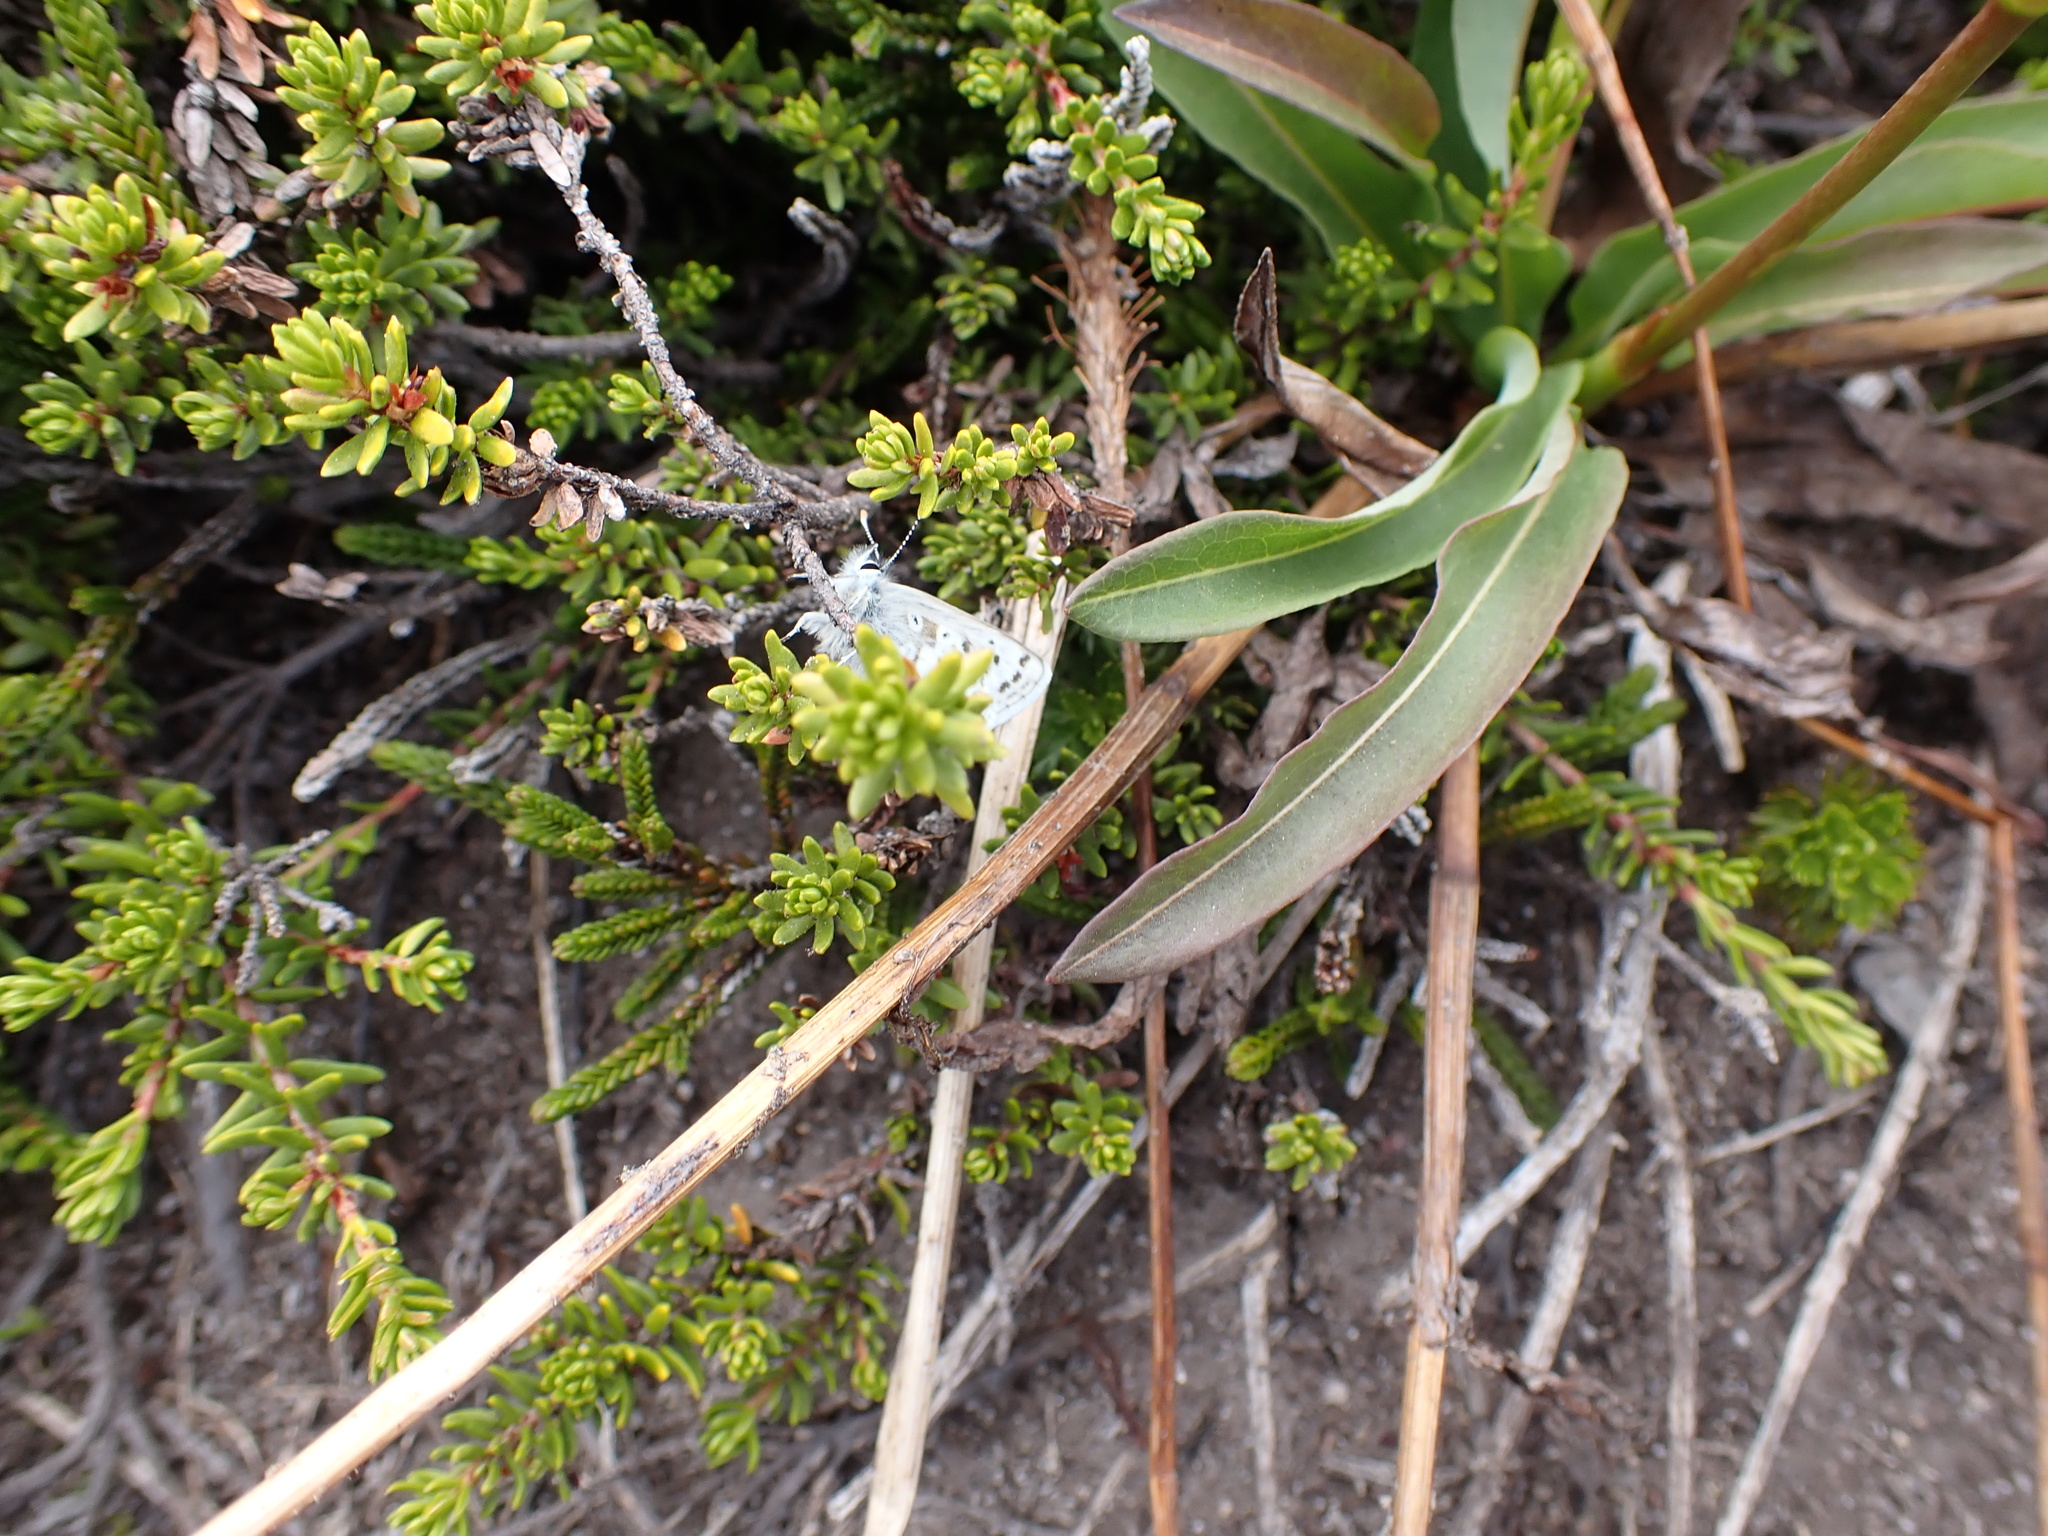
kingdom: Animalia
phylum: Arthropoda
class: Insecta
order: Lepidoptera
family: Lycaenidae
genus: Agriades
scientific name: Agriades glandon
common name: Glandon blue
